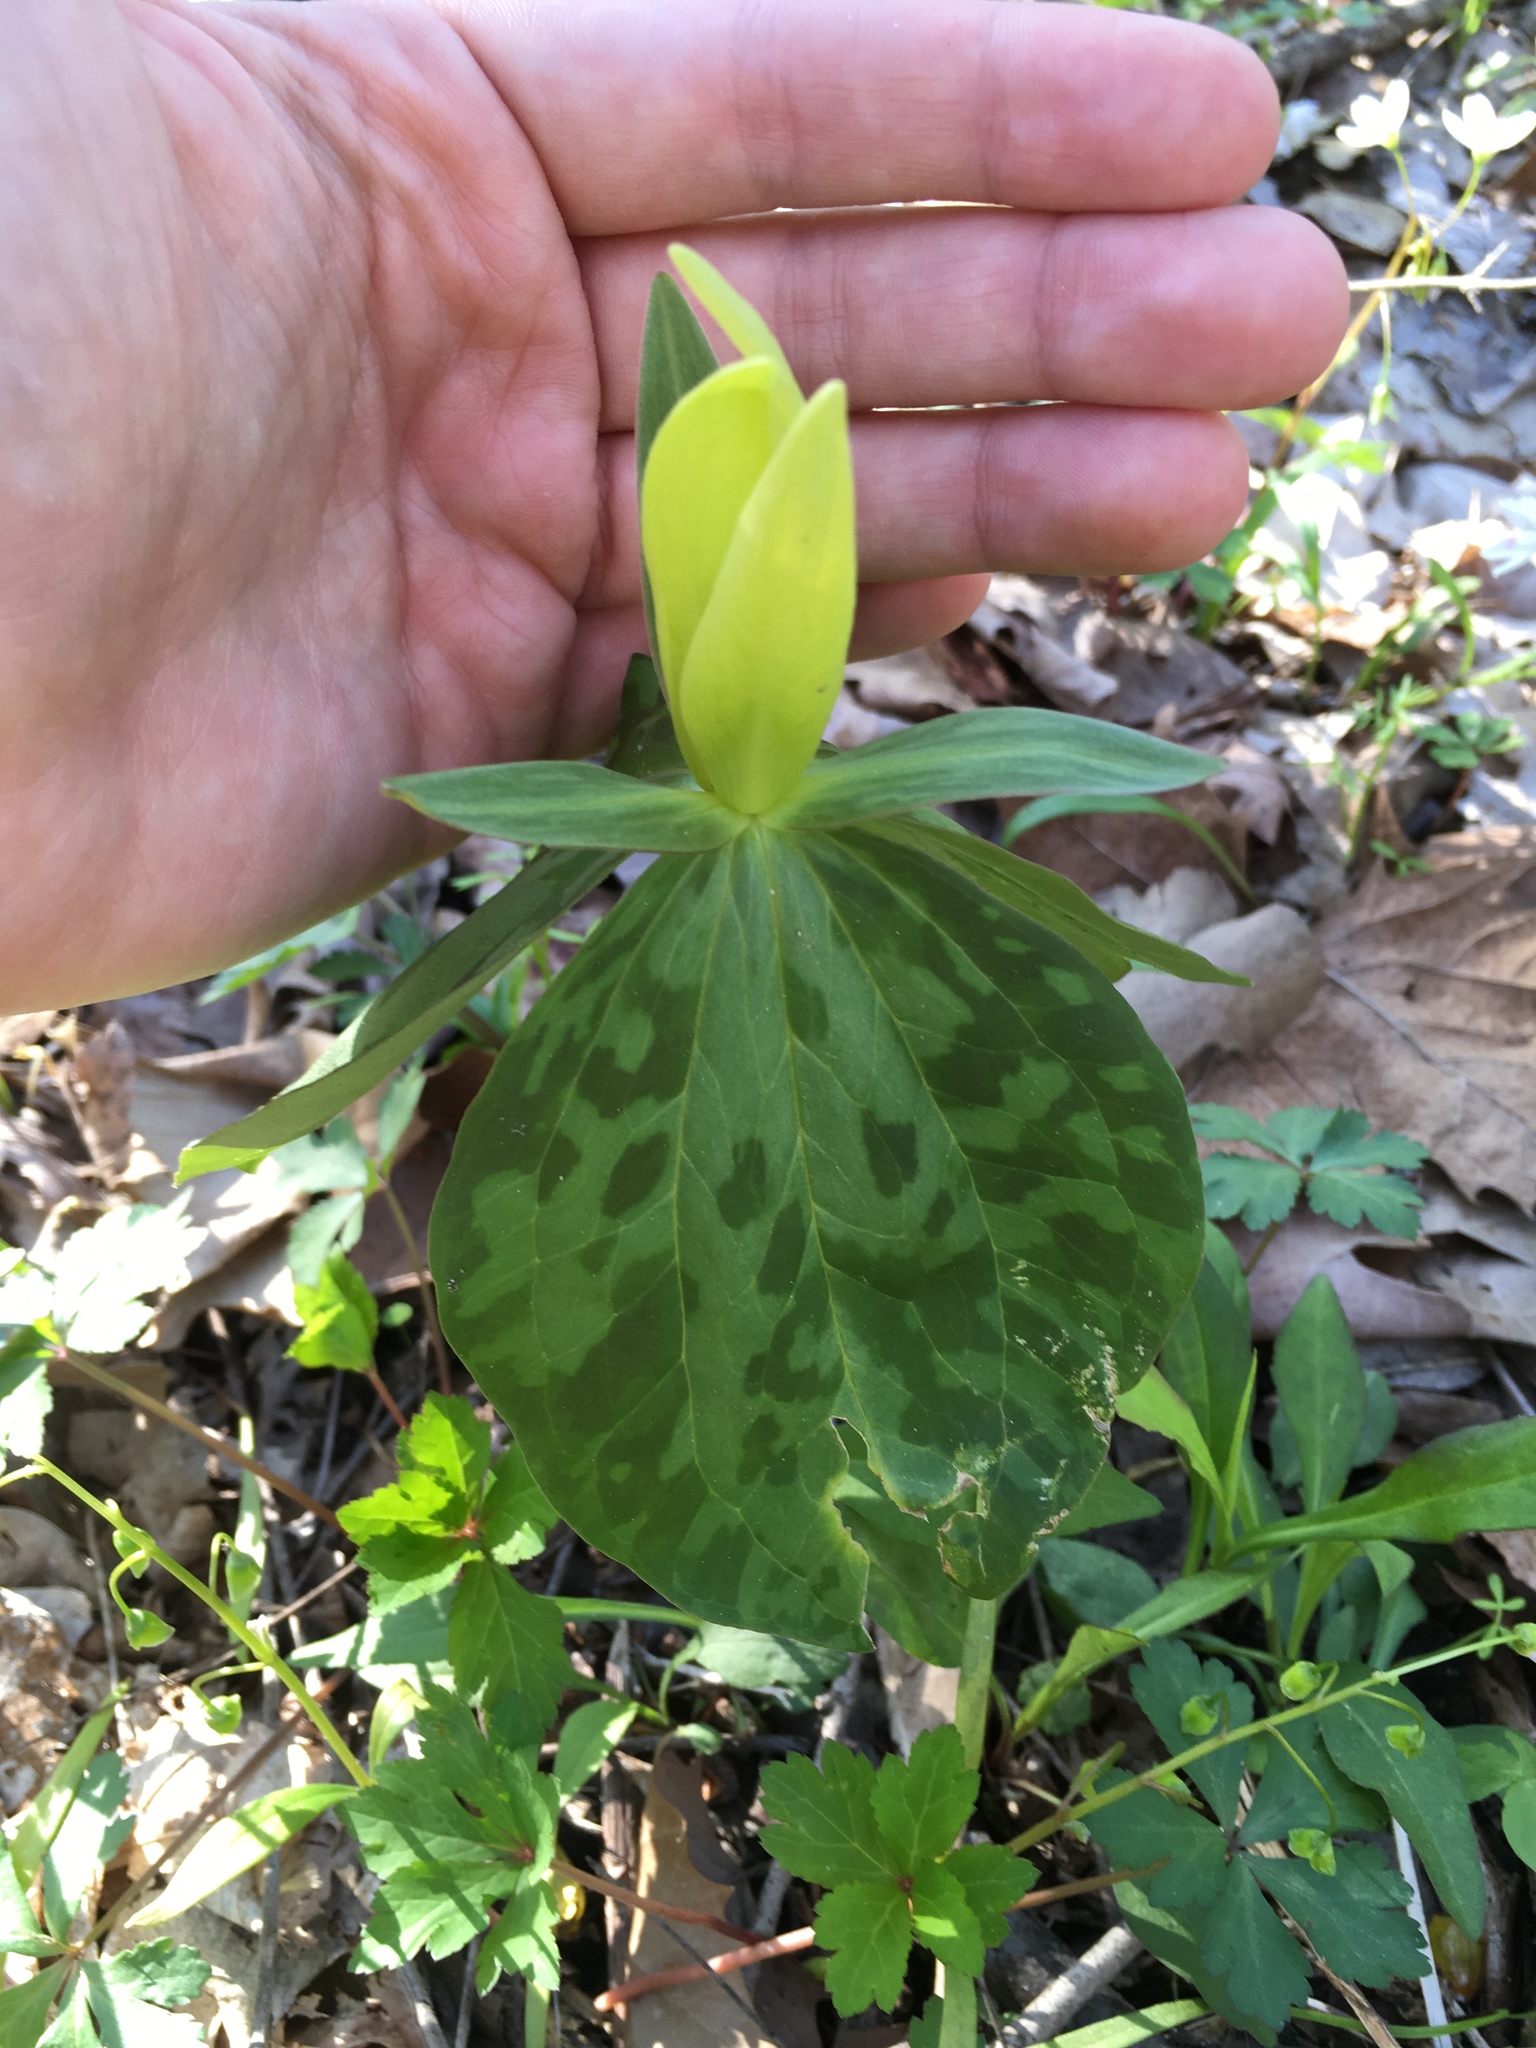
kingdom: Plantae
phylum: Tracheophyta
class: Liliopsida
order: Liliales
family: Melanthiaceae
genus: Trillium
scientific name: Trillium luteum
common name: Wax trillium
